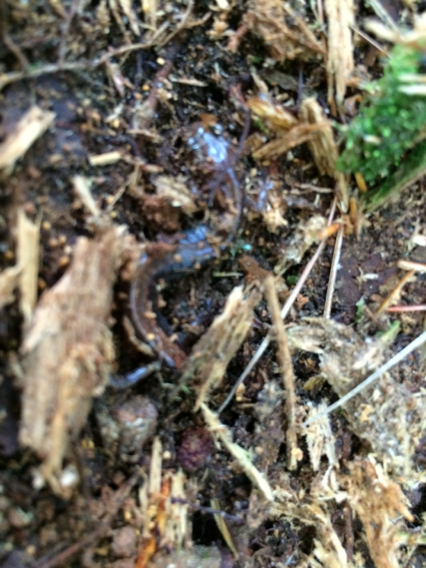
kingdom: Animalia
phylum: Chordata
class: Amphibia
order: Caudata
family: Plethodontidae
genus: Plethodon
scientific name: Plethodon cinereus
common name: Redback salamander
